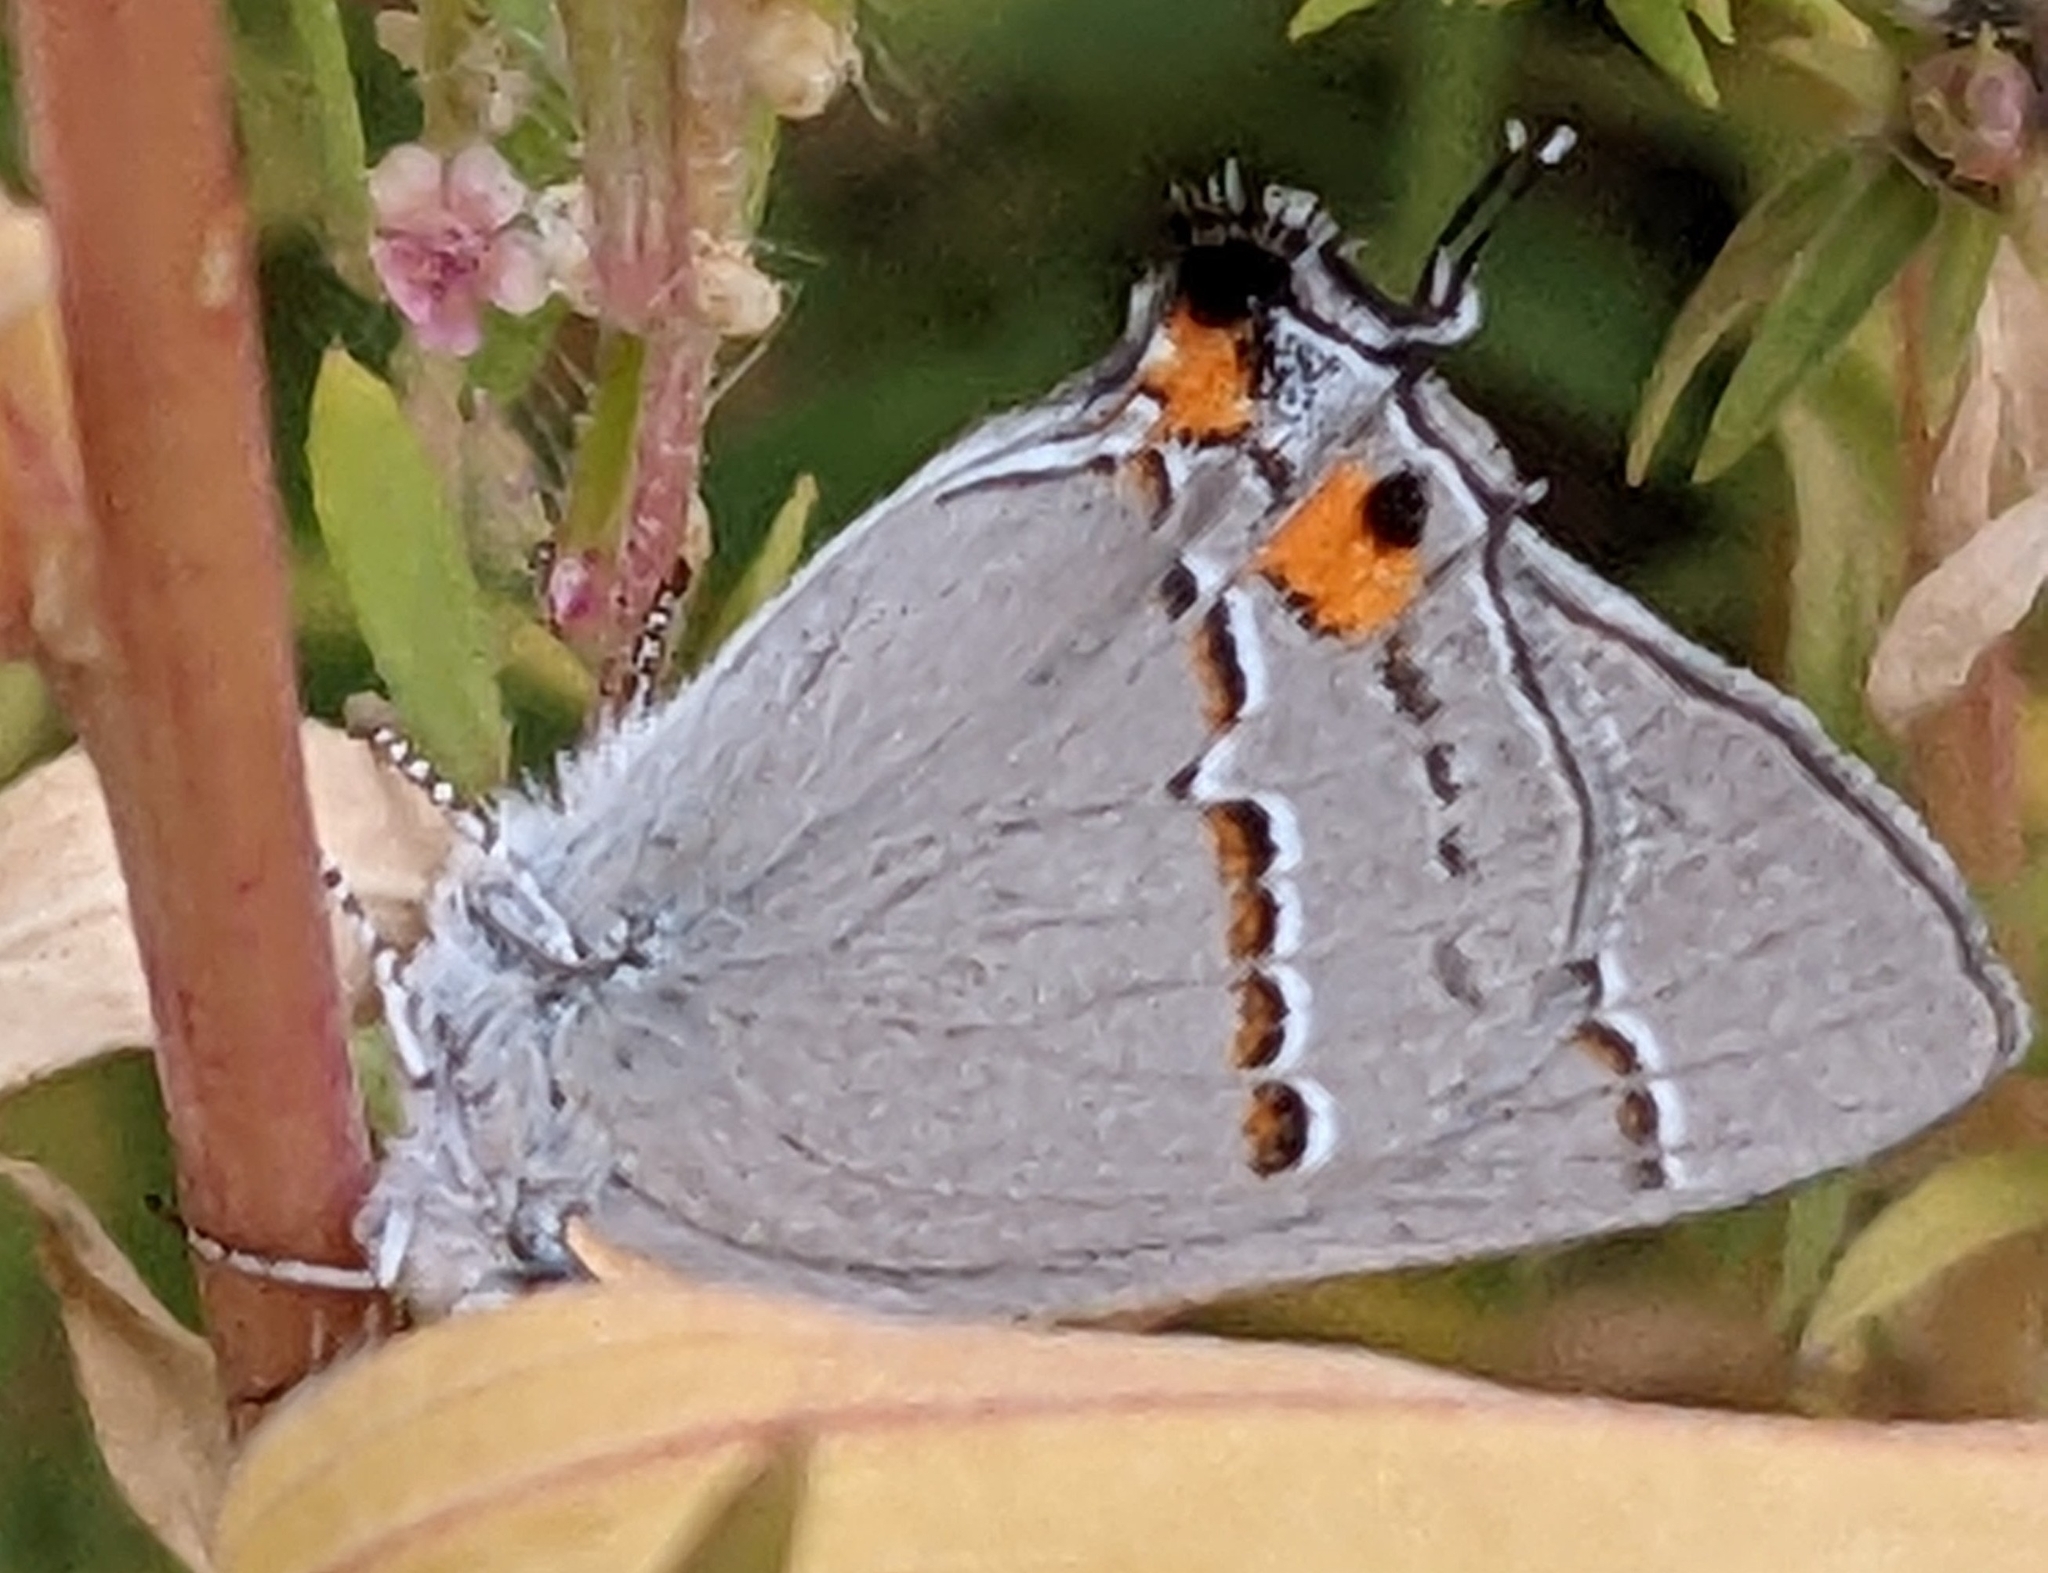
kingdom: Animalia
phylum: Arthropoda
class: Insecta
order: Lepidoptera
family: Lycaenidae
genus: Strymon
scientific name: Strymon melinus
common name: Gray hairstreak
